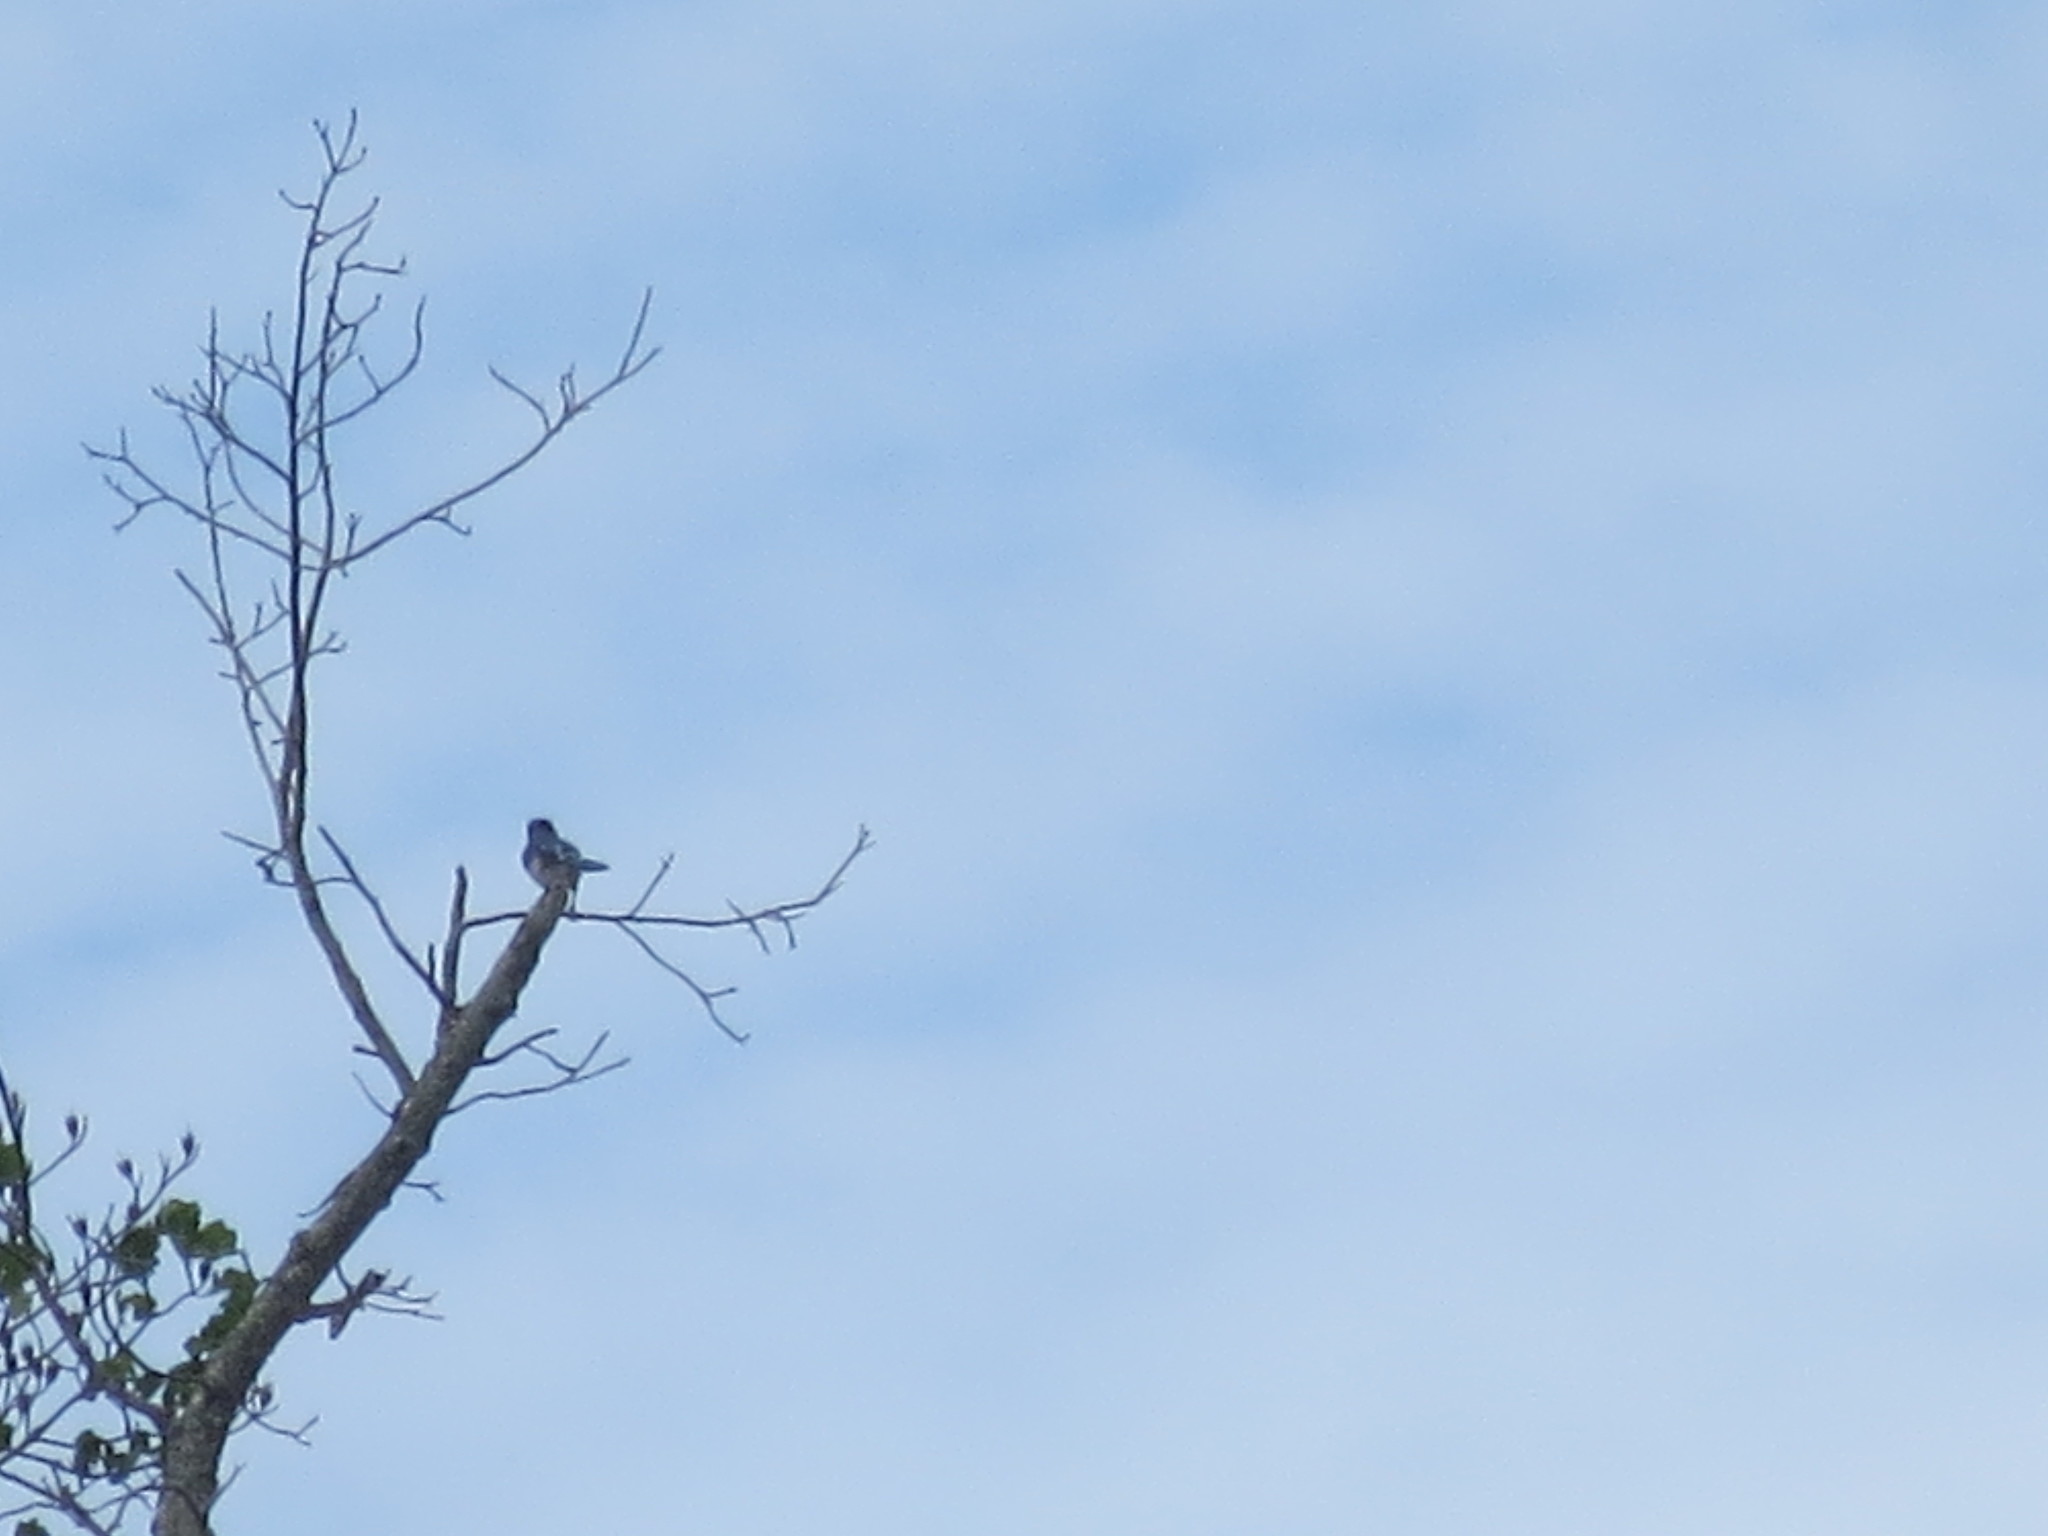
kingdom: Animalia
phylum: Chordata
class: Aves
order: Passeriformes
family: Corvidae
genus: Cyanocitta
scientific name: Cyanocitta cristata
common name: Blue jay
